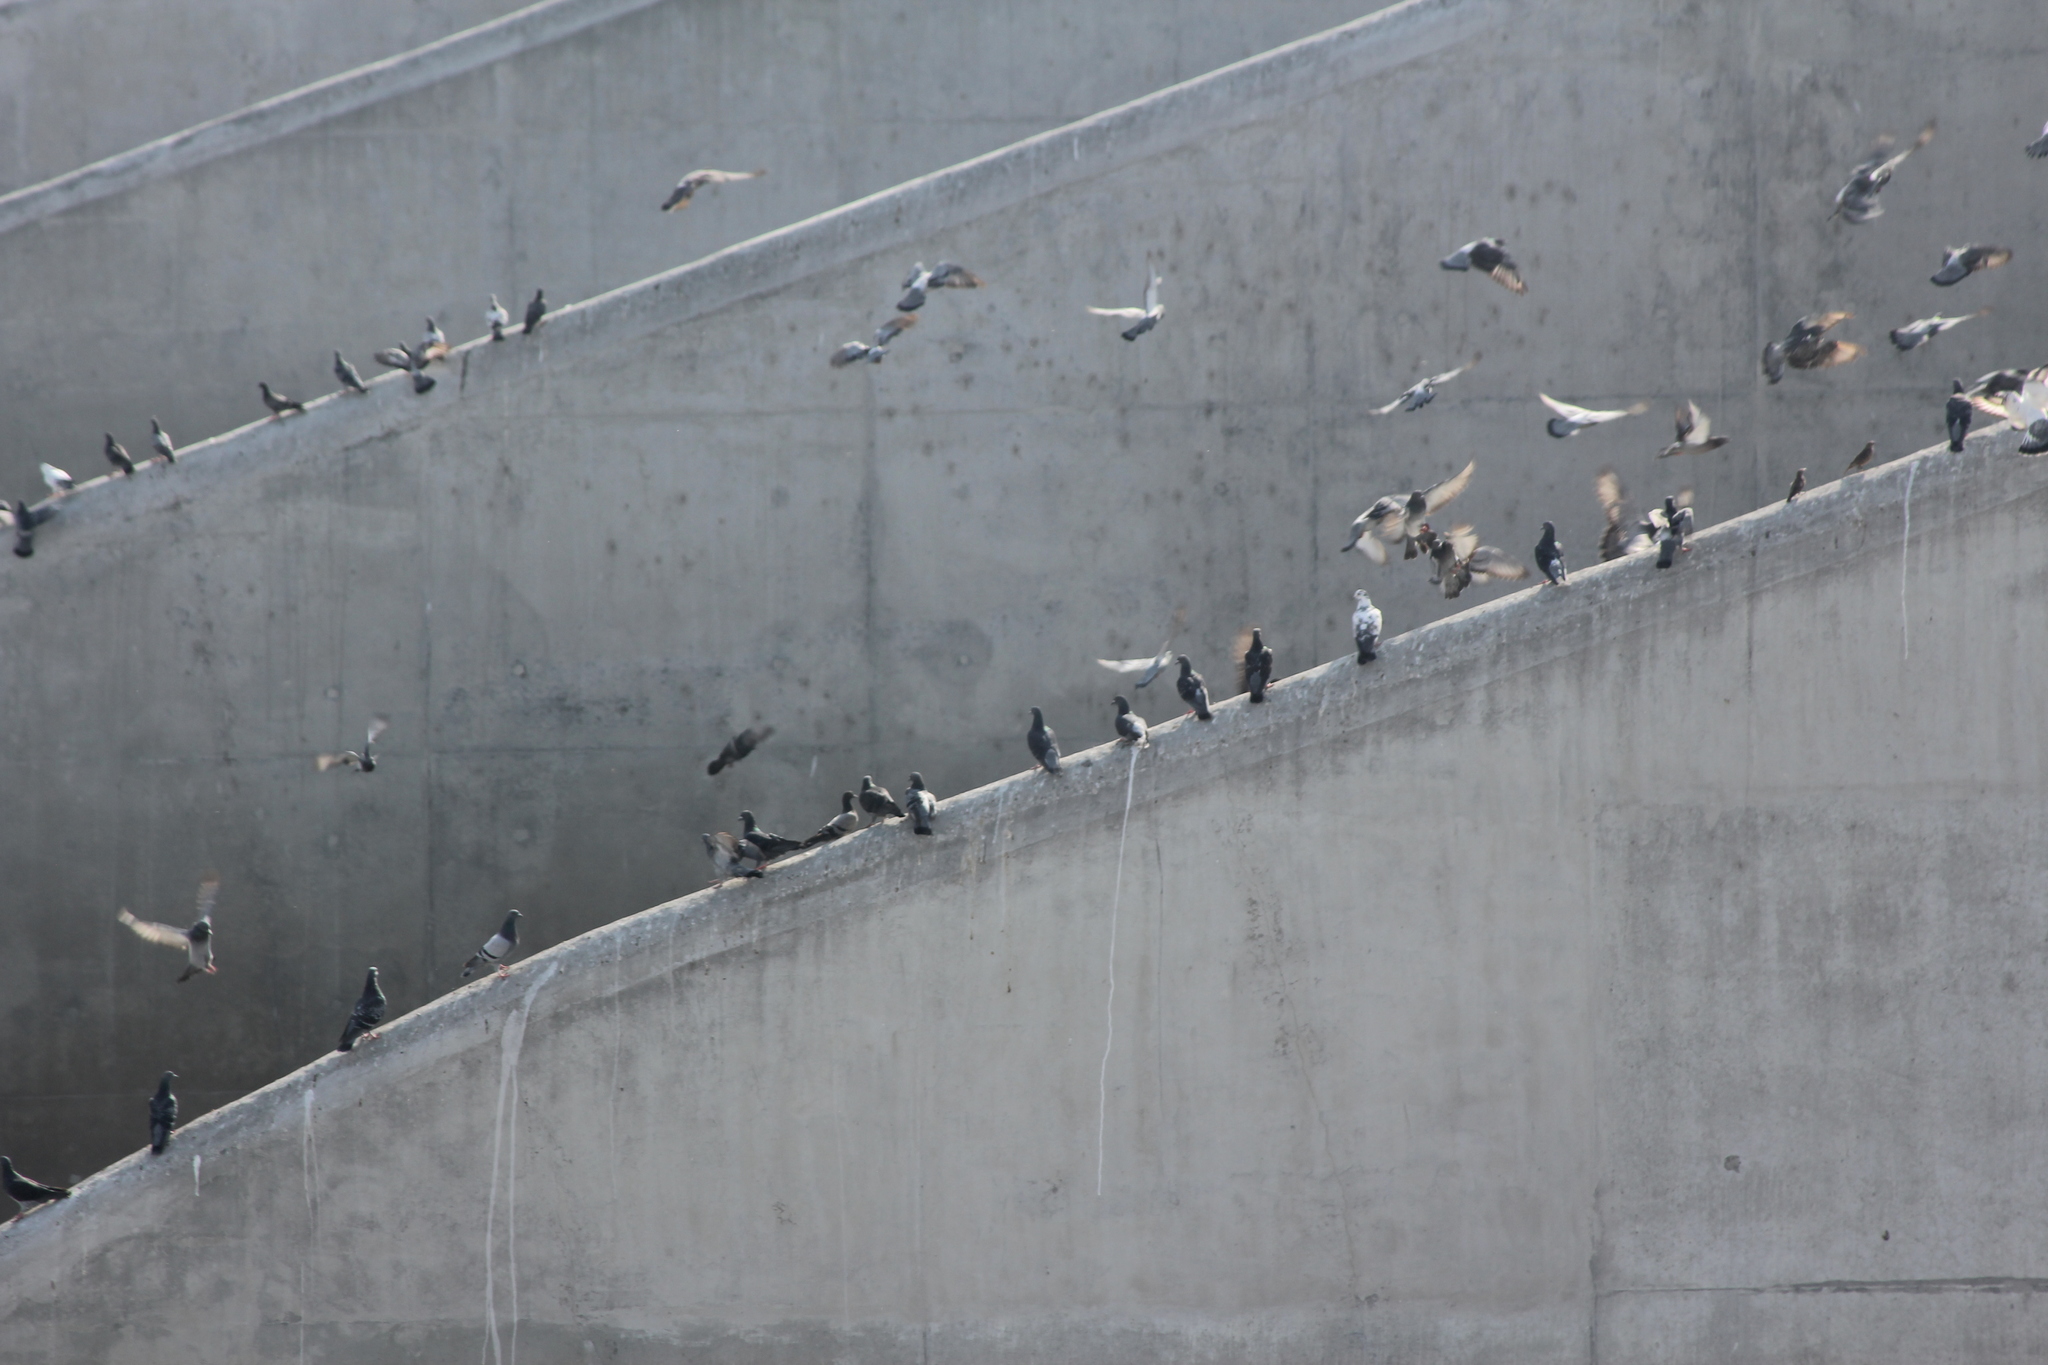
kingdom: Animalia
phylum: Chordata
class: Aves
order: Columbiformes
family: Columbidae
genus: Columba
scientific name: Columba livia
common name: Rock pigeon
